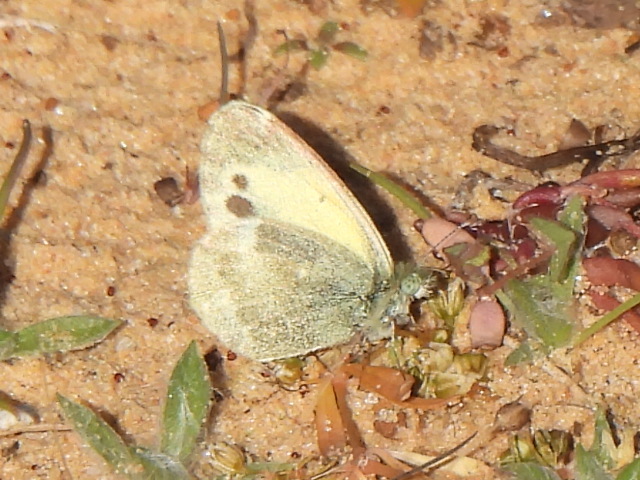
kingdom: Animalia
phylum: Arthropoda
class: Insecta
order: Lepidoptera
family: Pieridae
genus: Nathalis
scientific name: Nathalis iole
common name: Dainty sulphur
